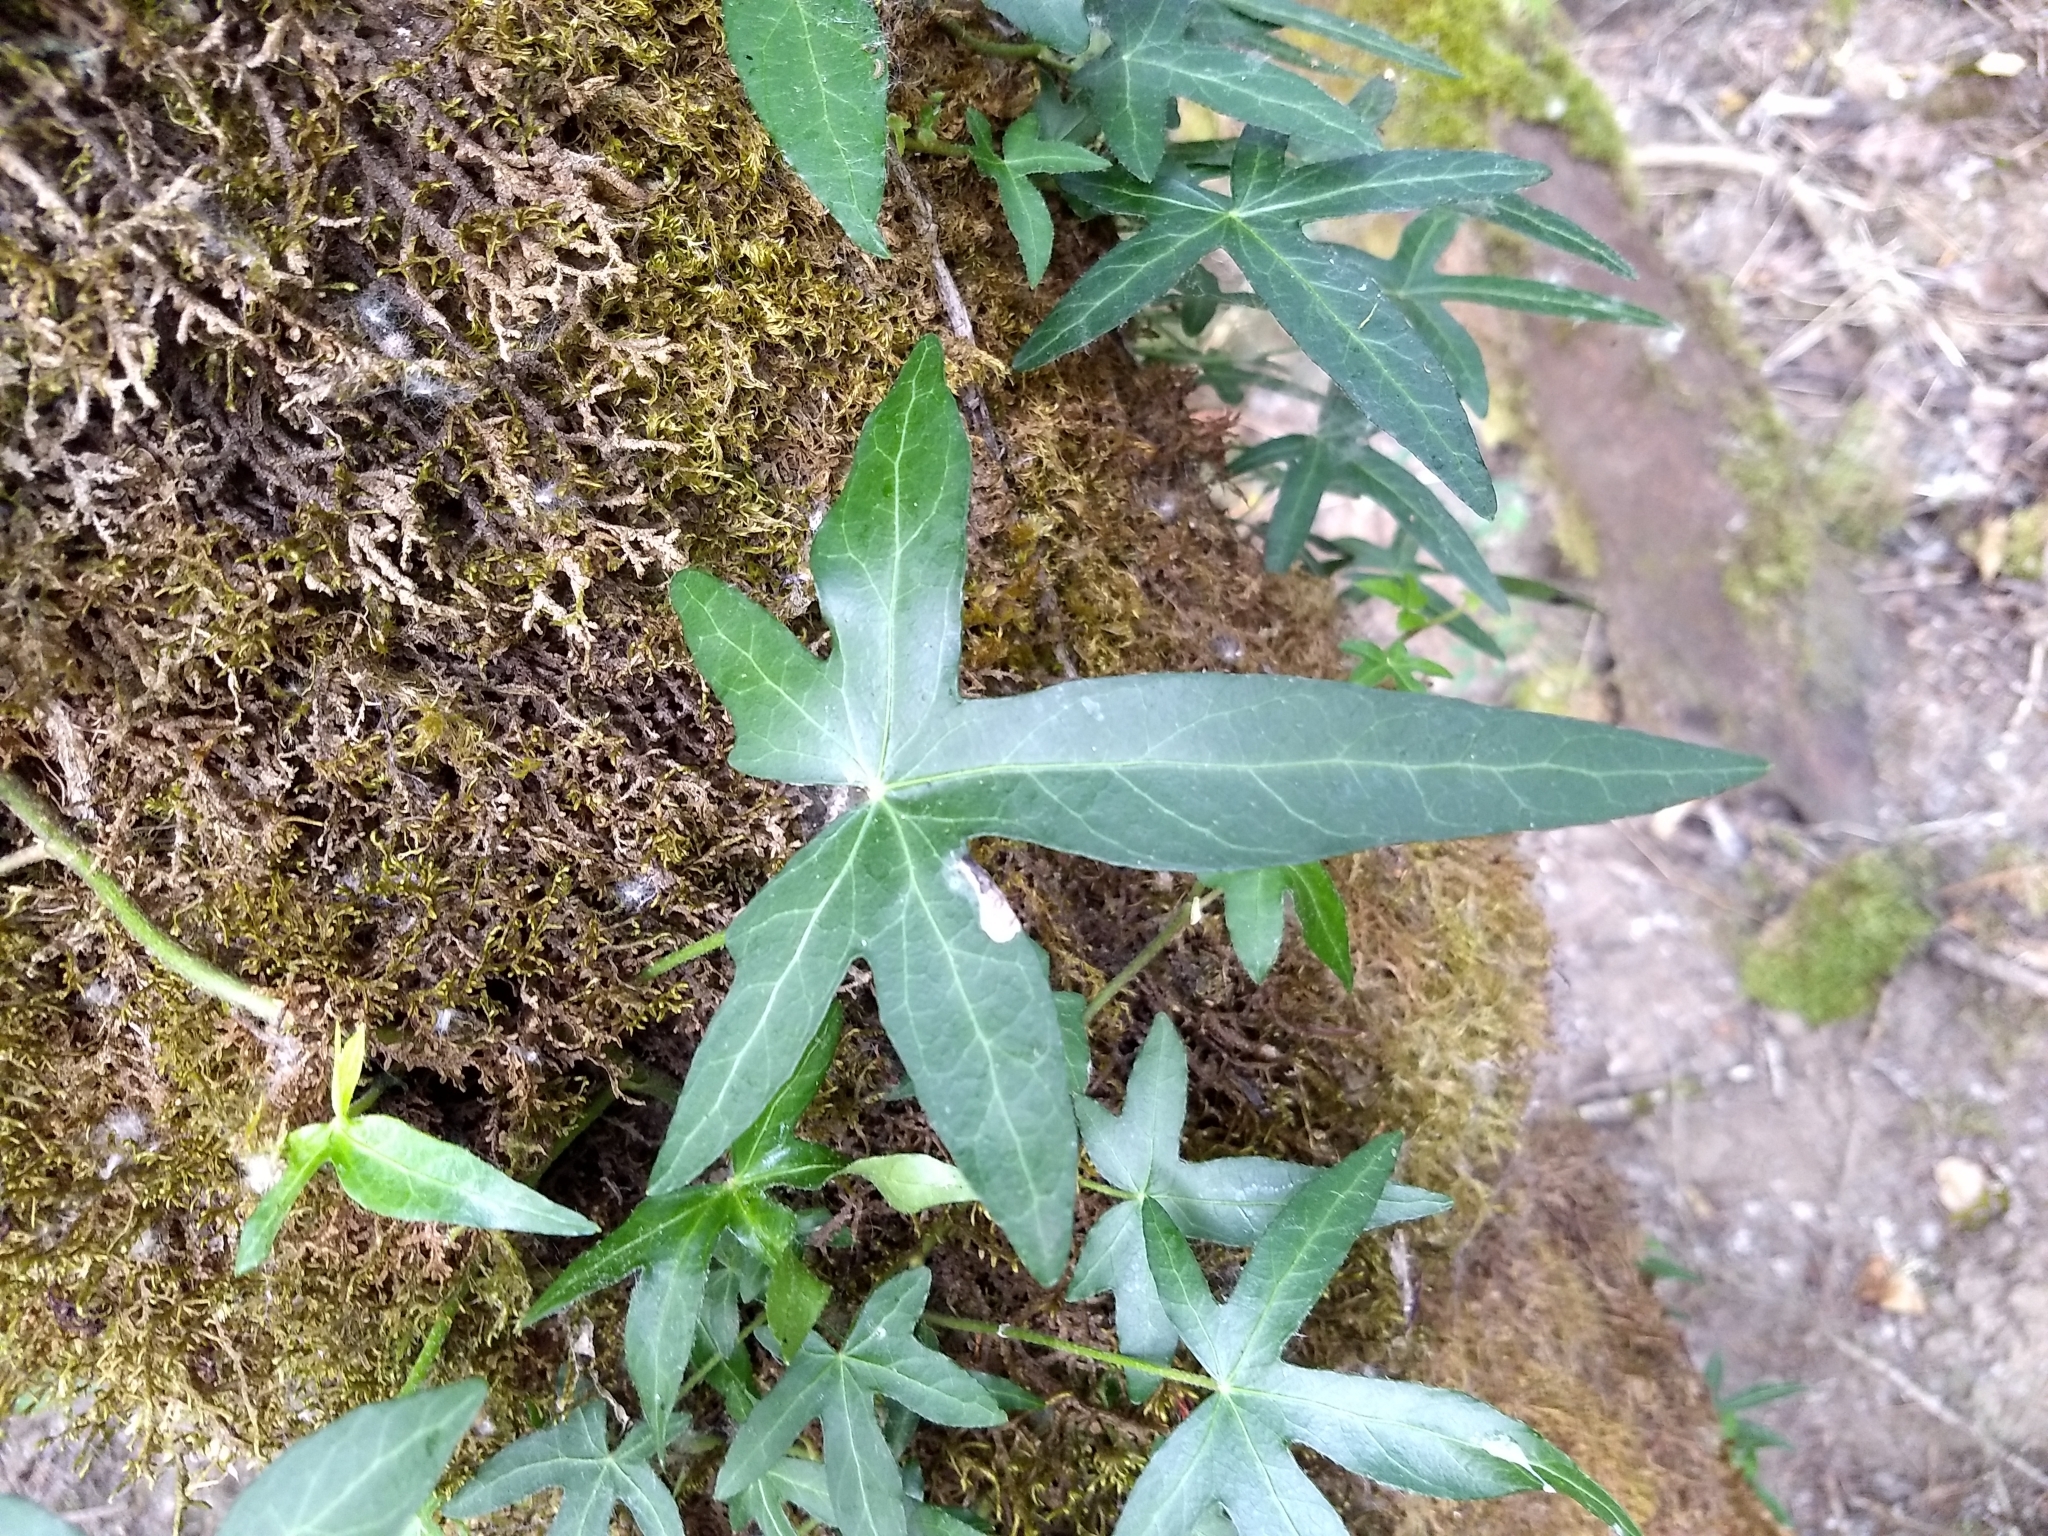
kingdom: Plantae
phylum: Tracheophyta
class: Magnoliopsida
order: Apiales
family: Araliaceae
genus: Hedera
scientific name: Hedera helix
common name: Ivy
